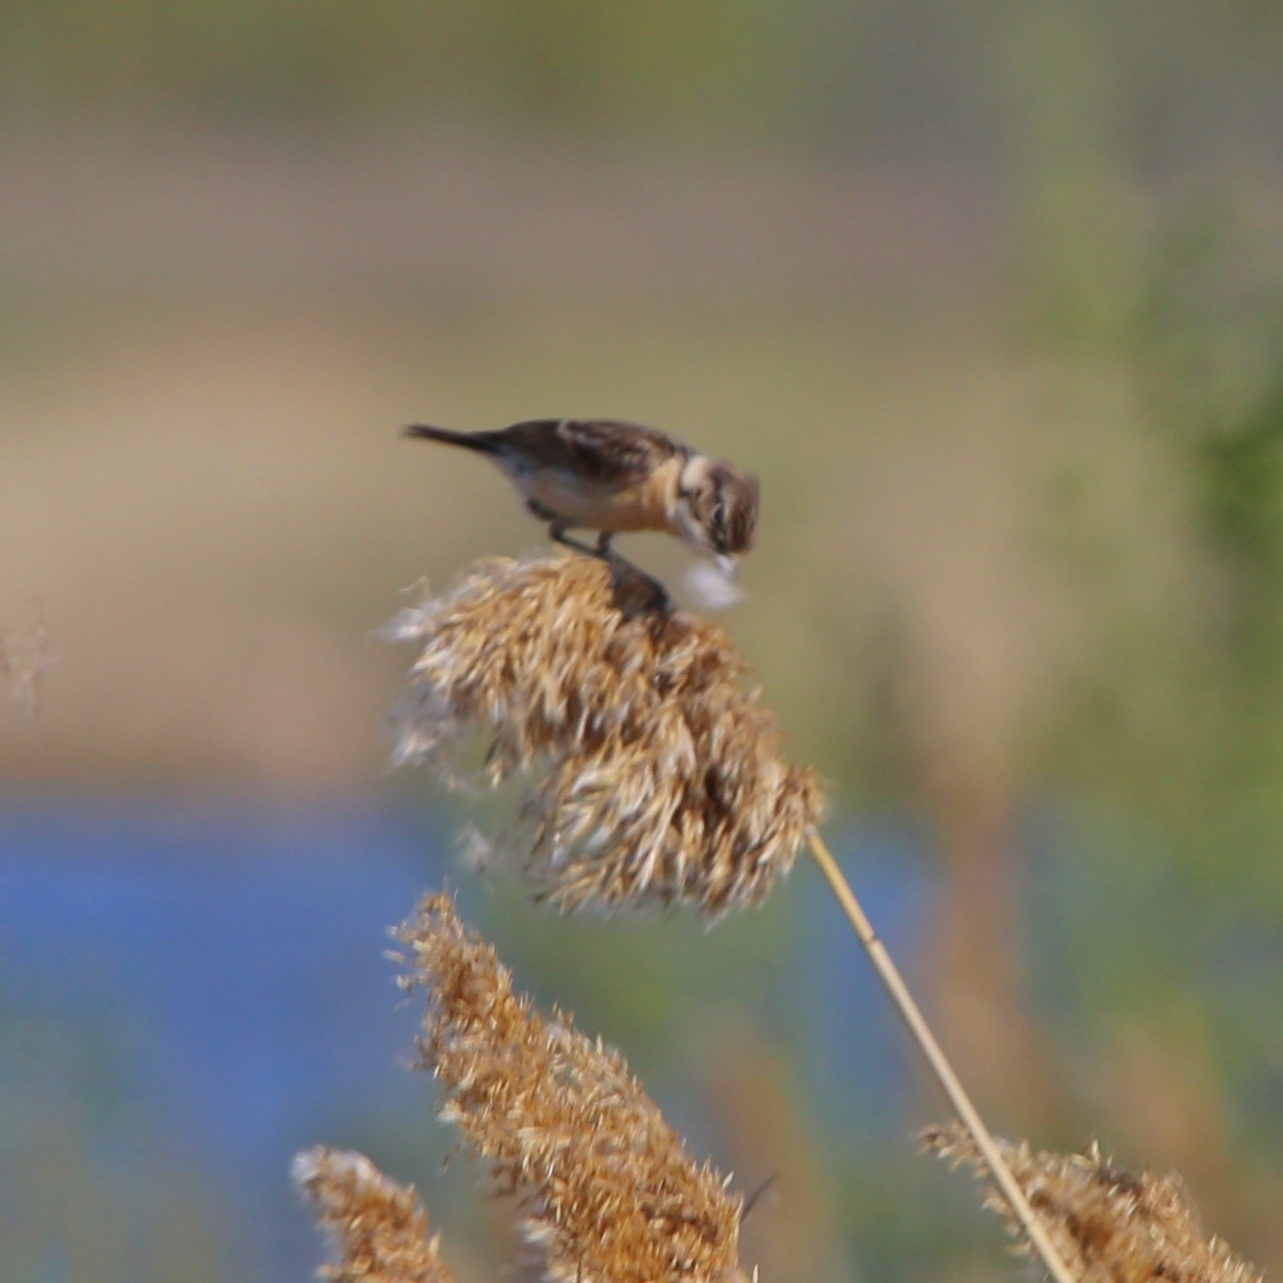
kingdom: Animalia
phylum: Chordata
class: Aves
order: Passeriformes
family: Muscicapidae
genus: Saxicola
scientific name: Saxicola maurus
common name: Siberian stonechat
